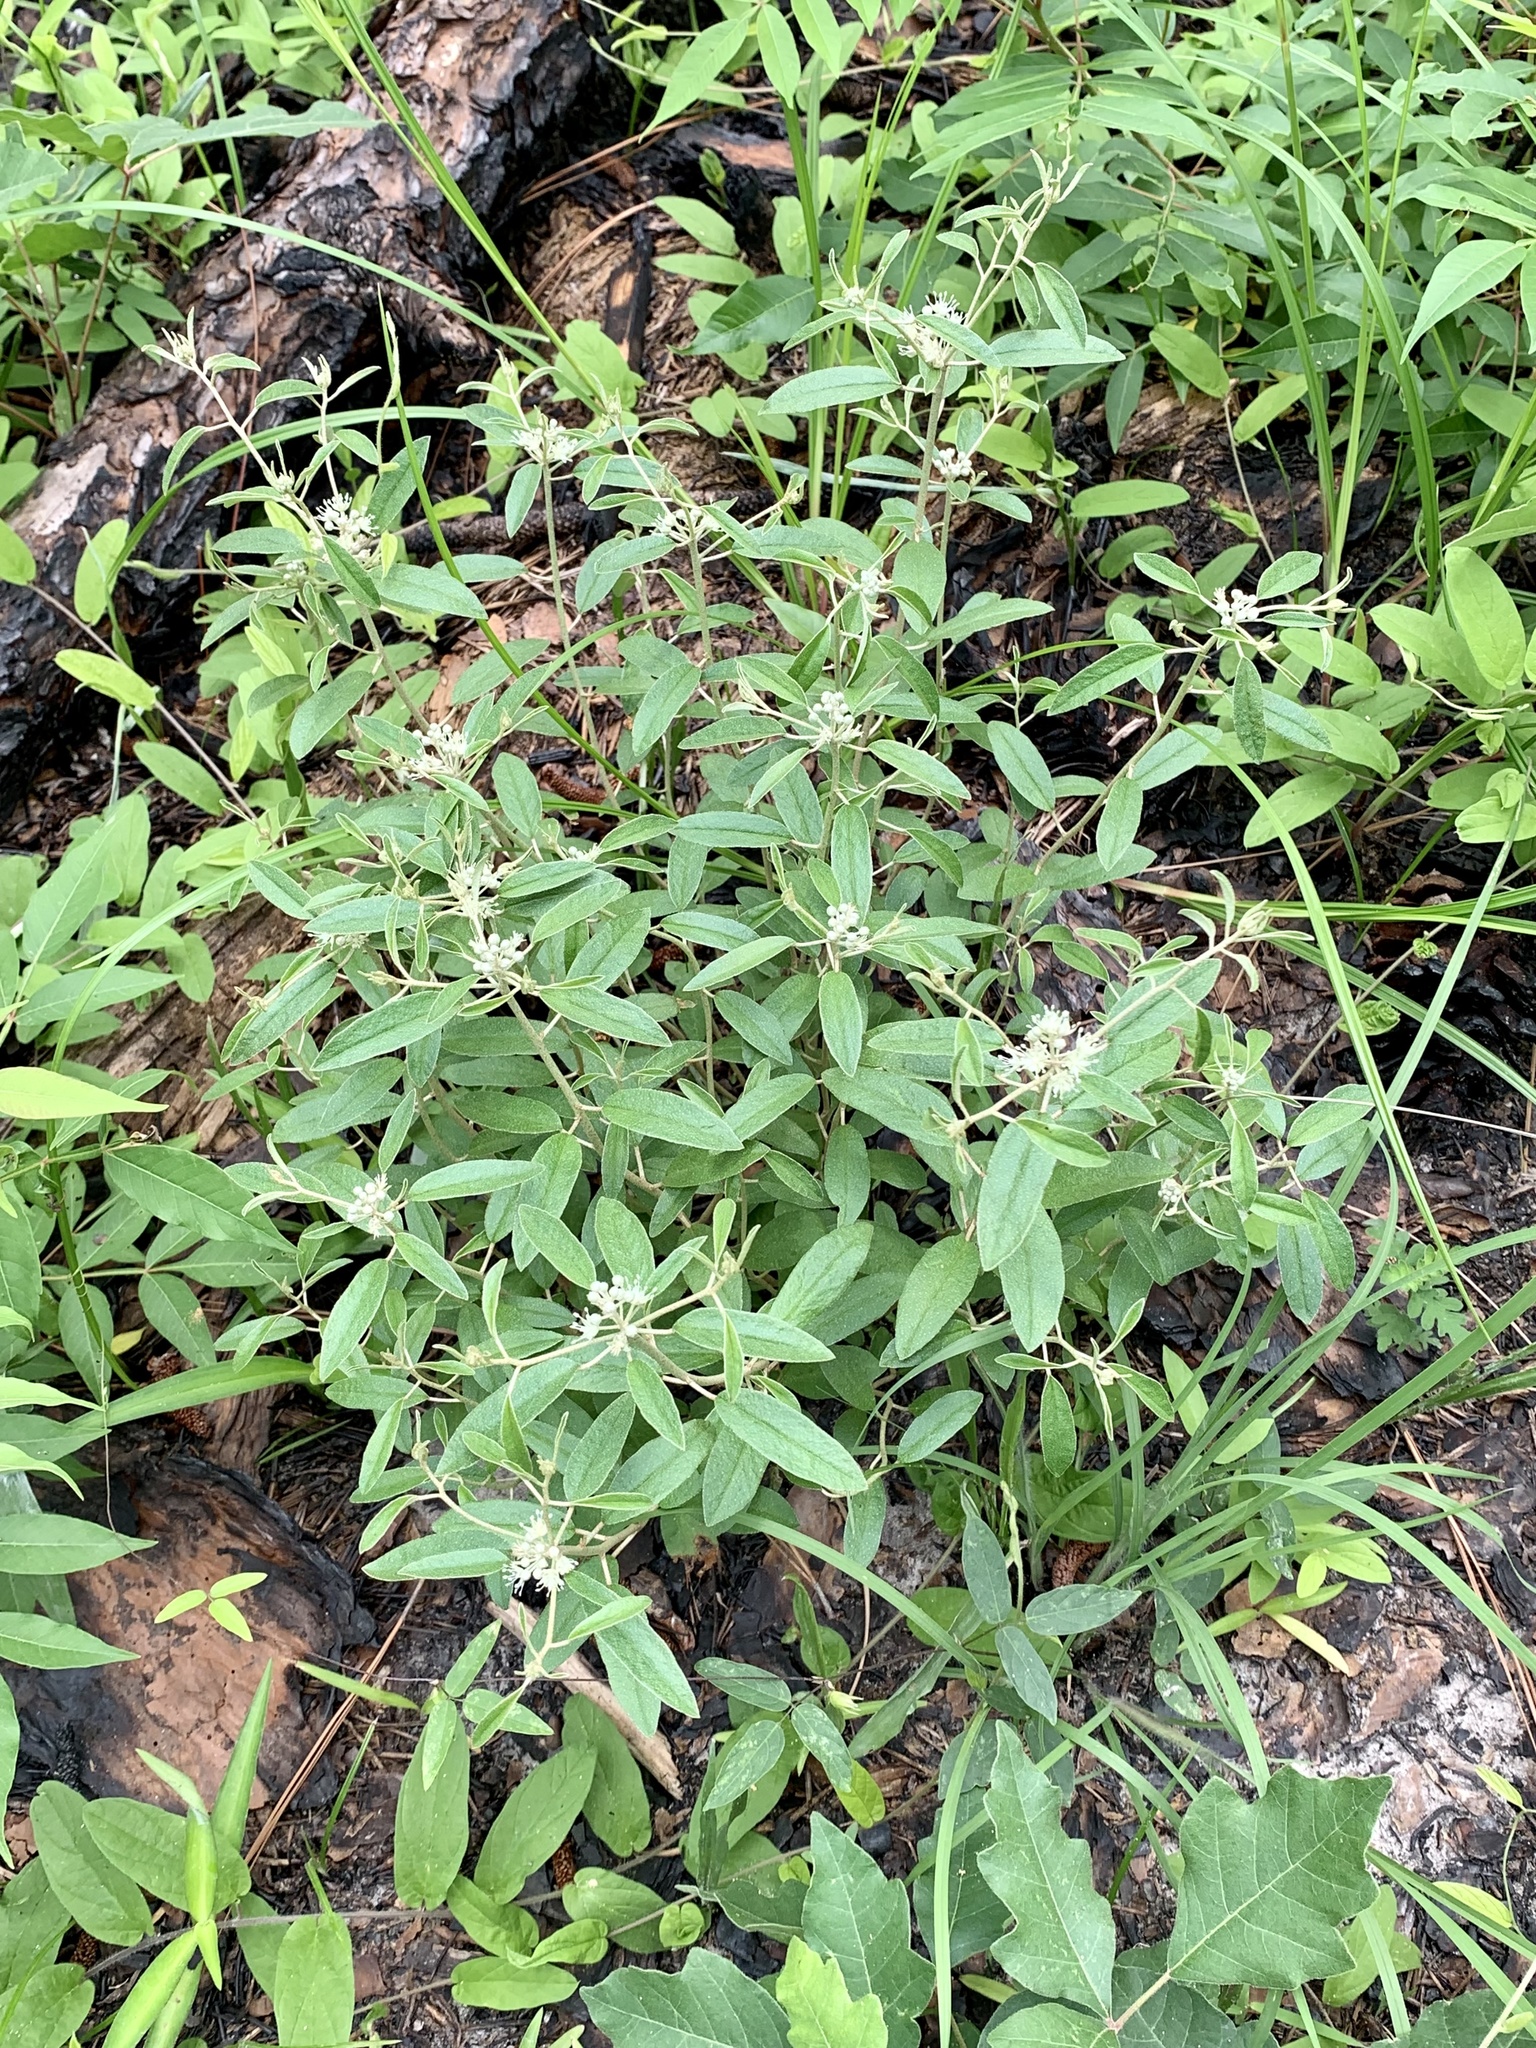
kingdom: Plantae
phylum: Tracheophyta
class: Magnoliopsida
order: Malpighiales
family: Euphorbiaceae
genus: Croton
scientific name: Croton argyranthemus
